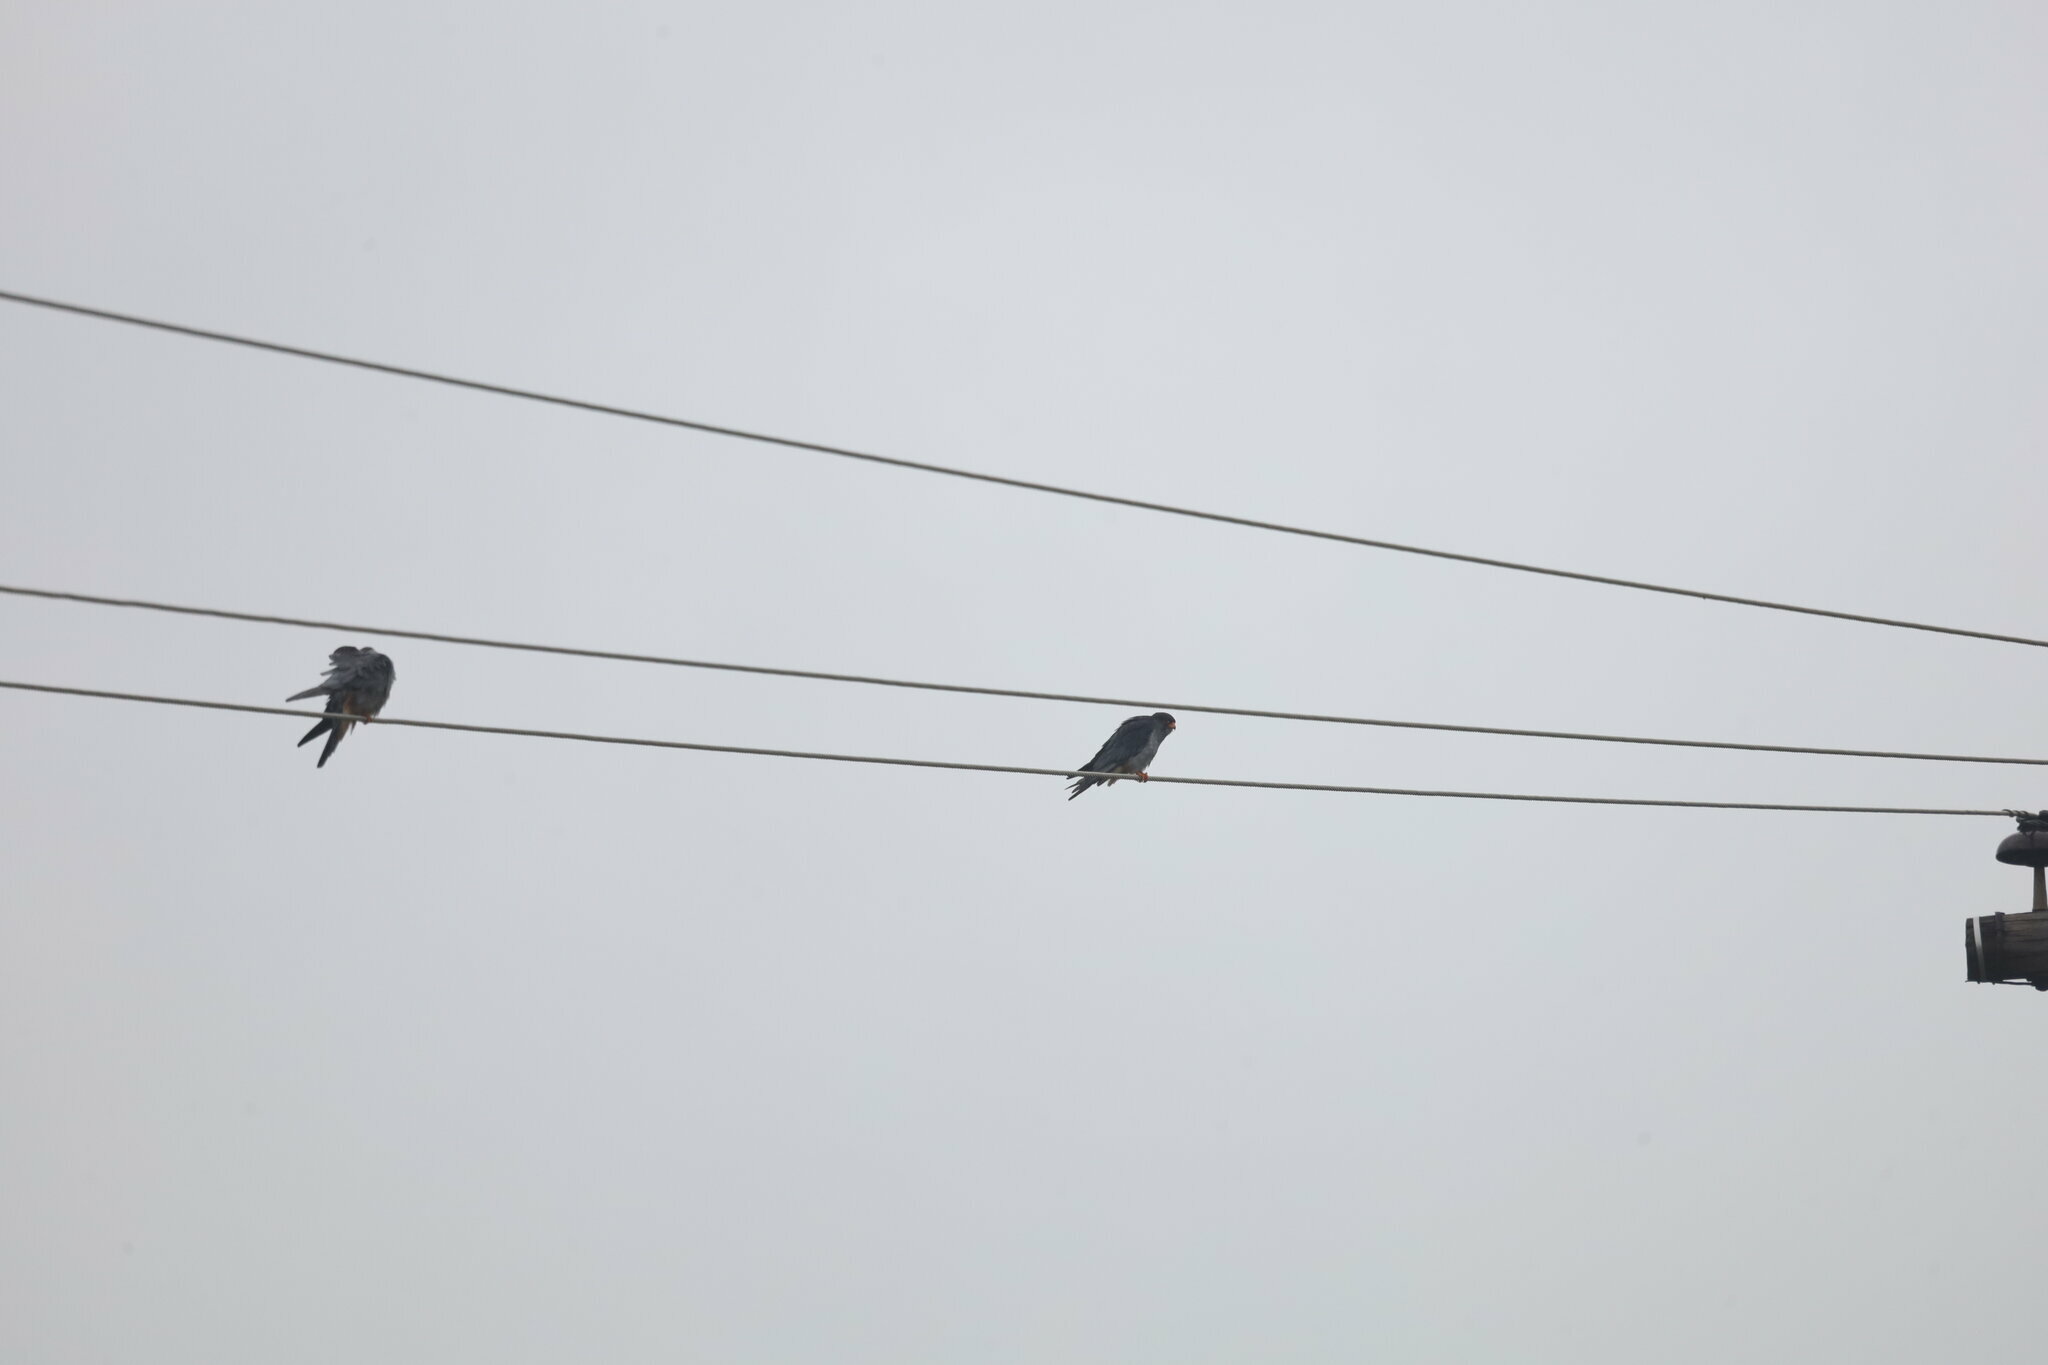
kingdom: Animalia
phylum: Chordata
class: Aves
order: Falconiformes
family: Falconidae
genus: Falco
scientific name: Falco amurensis
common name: Amur falcon
